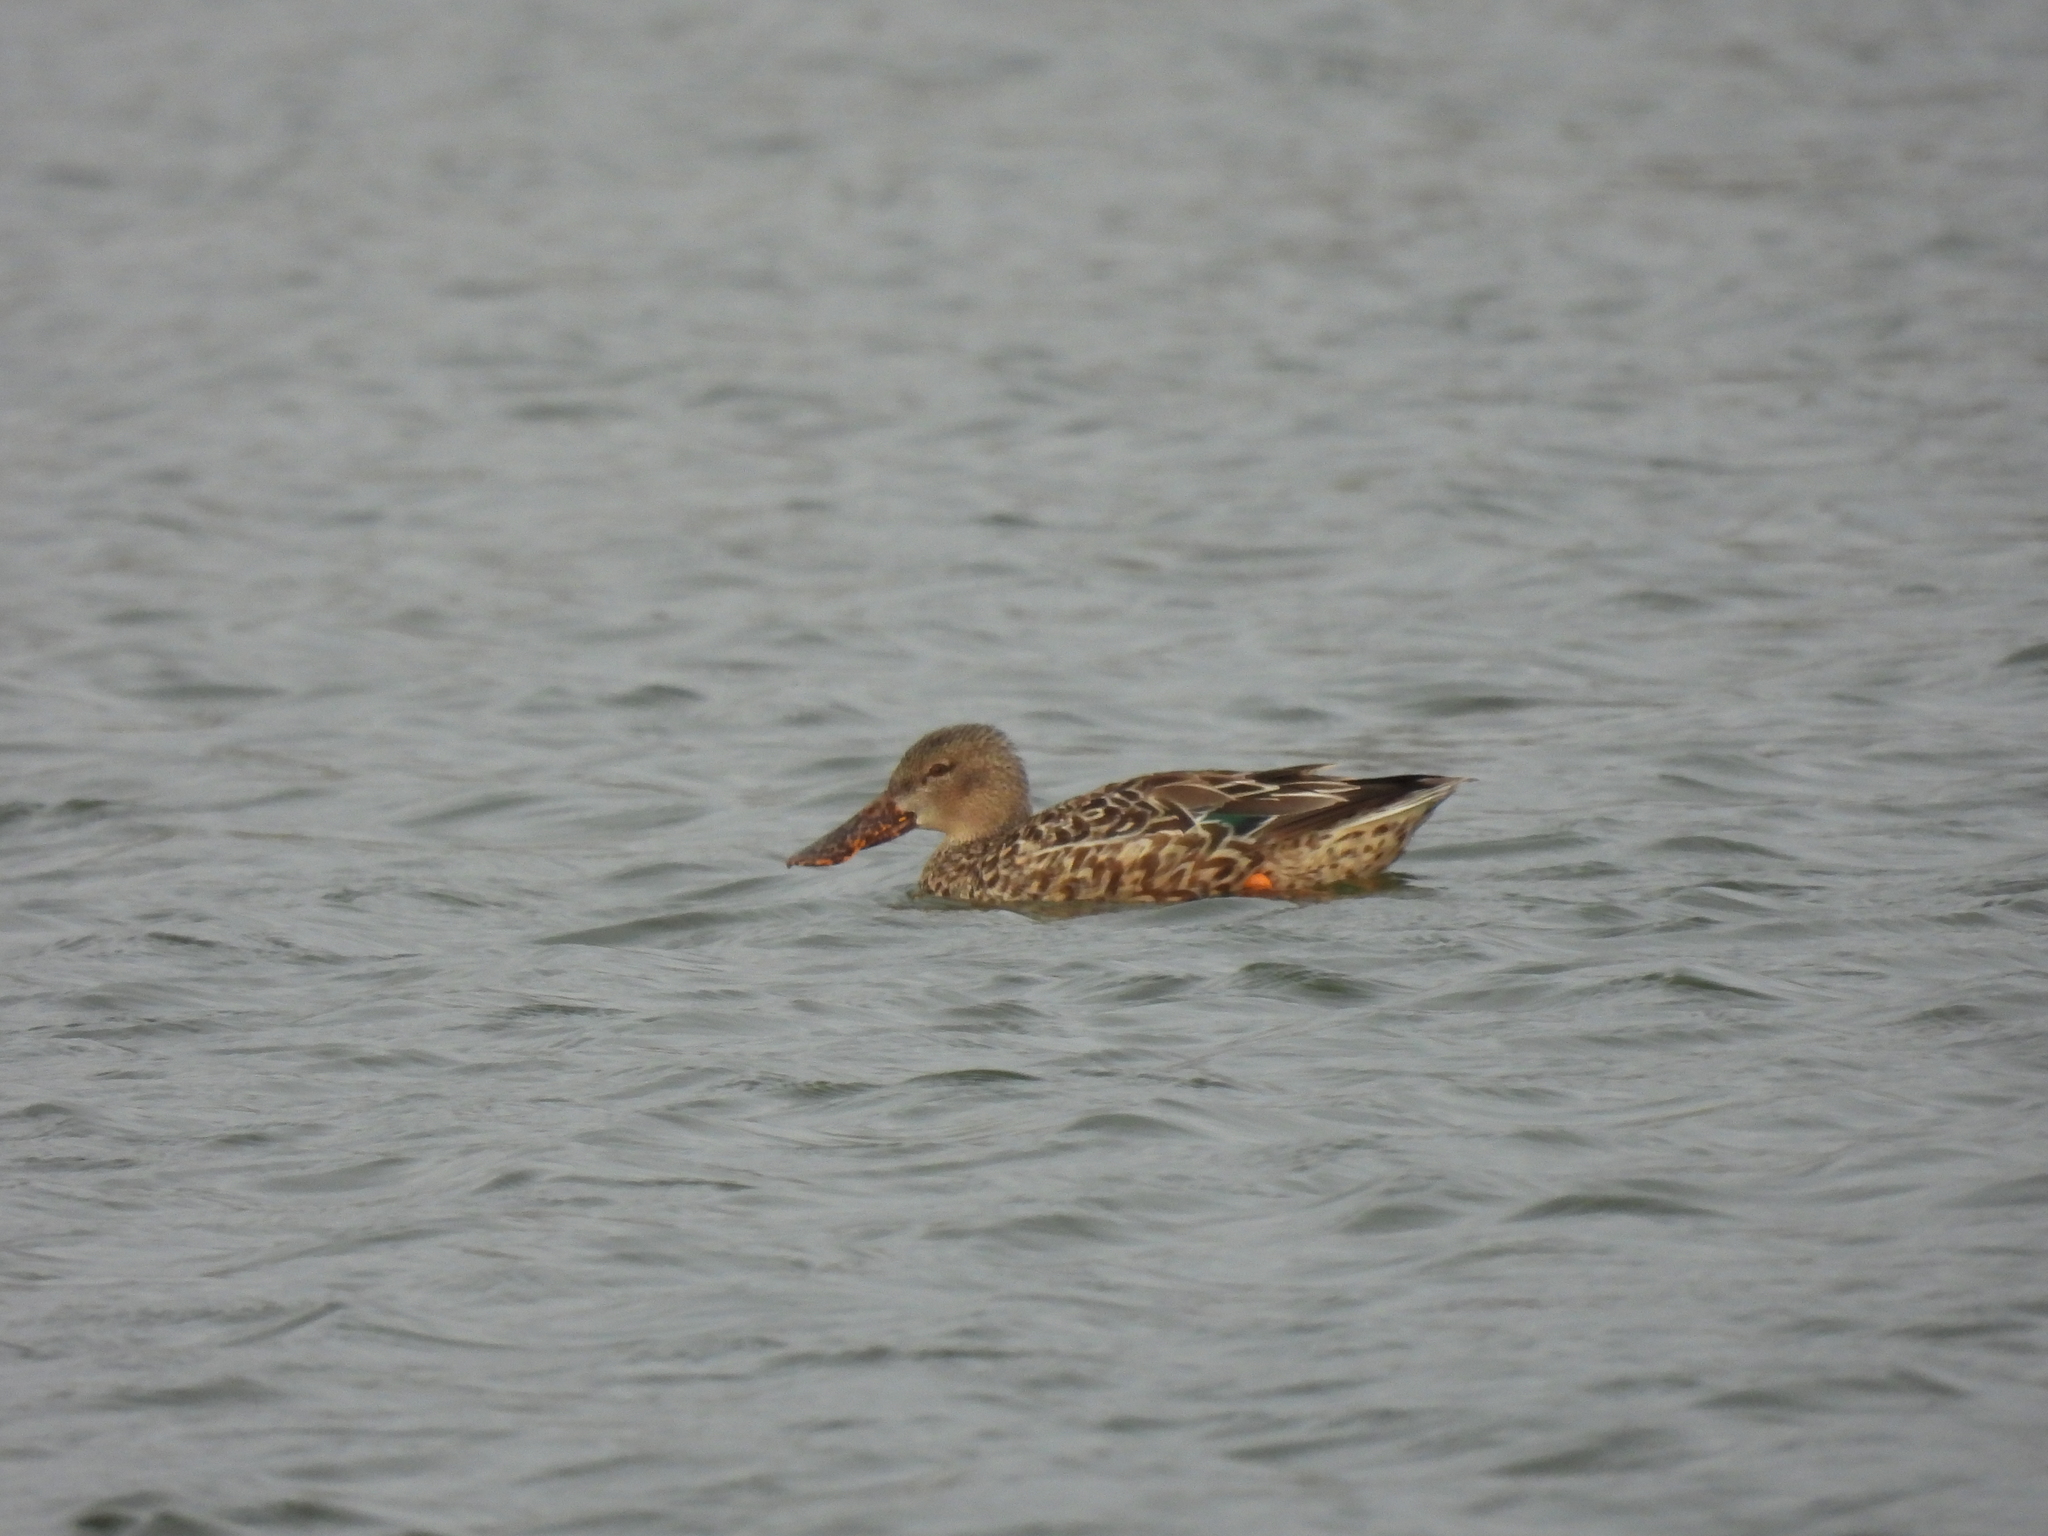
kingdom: Animalia
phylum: Chordata
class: Aves
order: Anseriformes
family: Anatidae
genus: Spatula
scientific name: Spatula clypeata
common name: Northern shoveler
